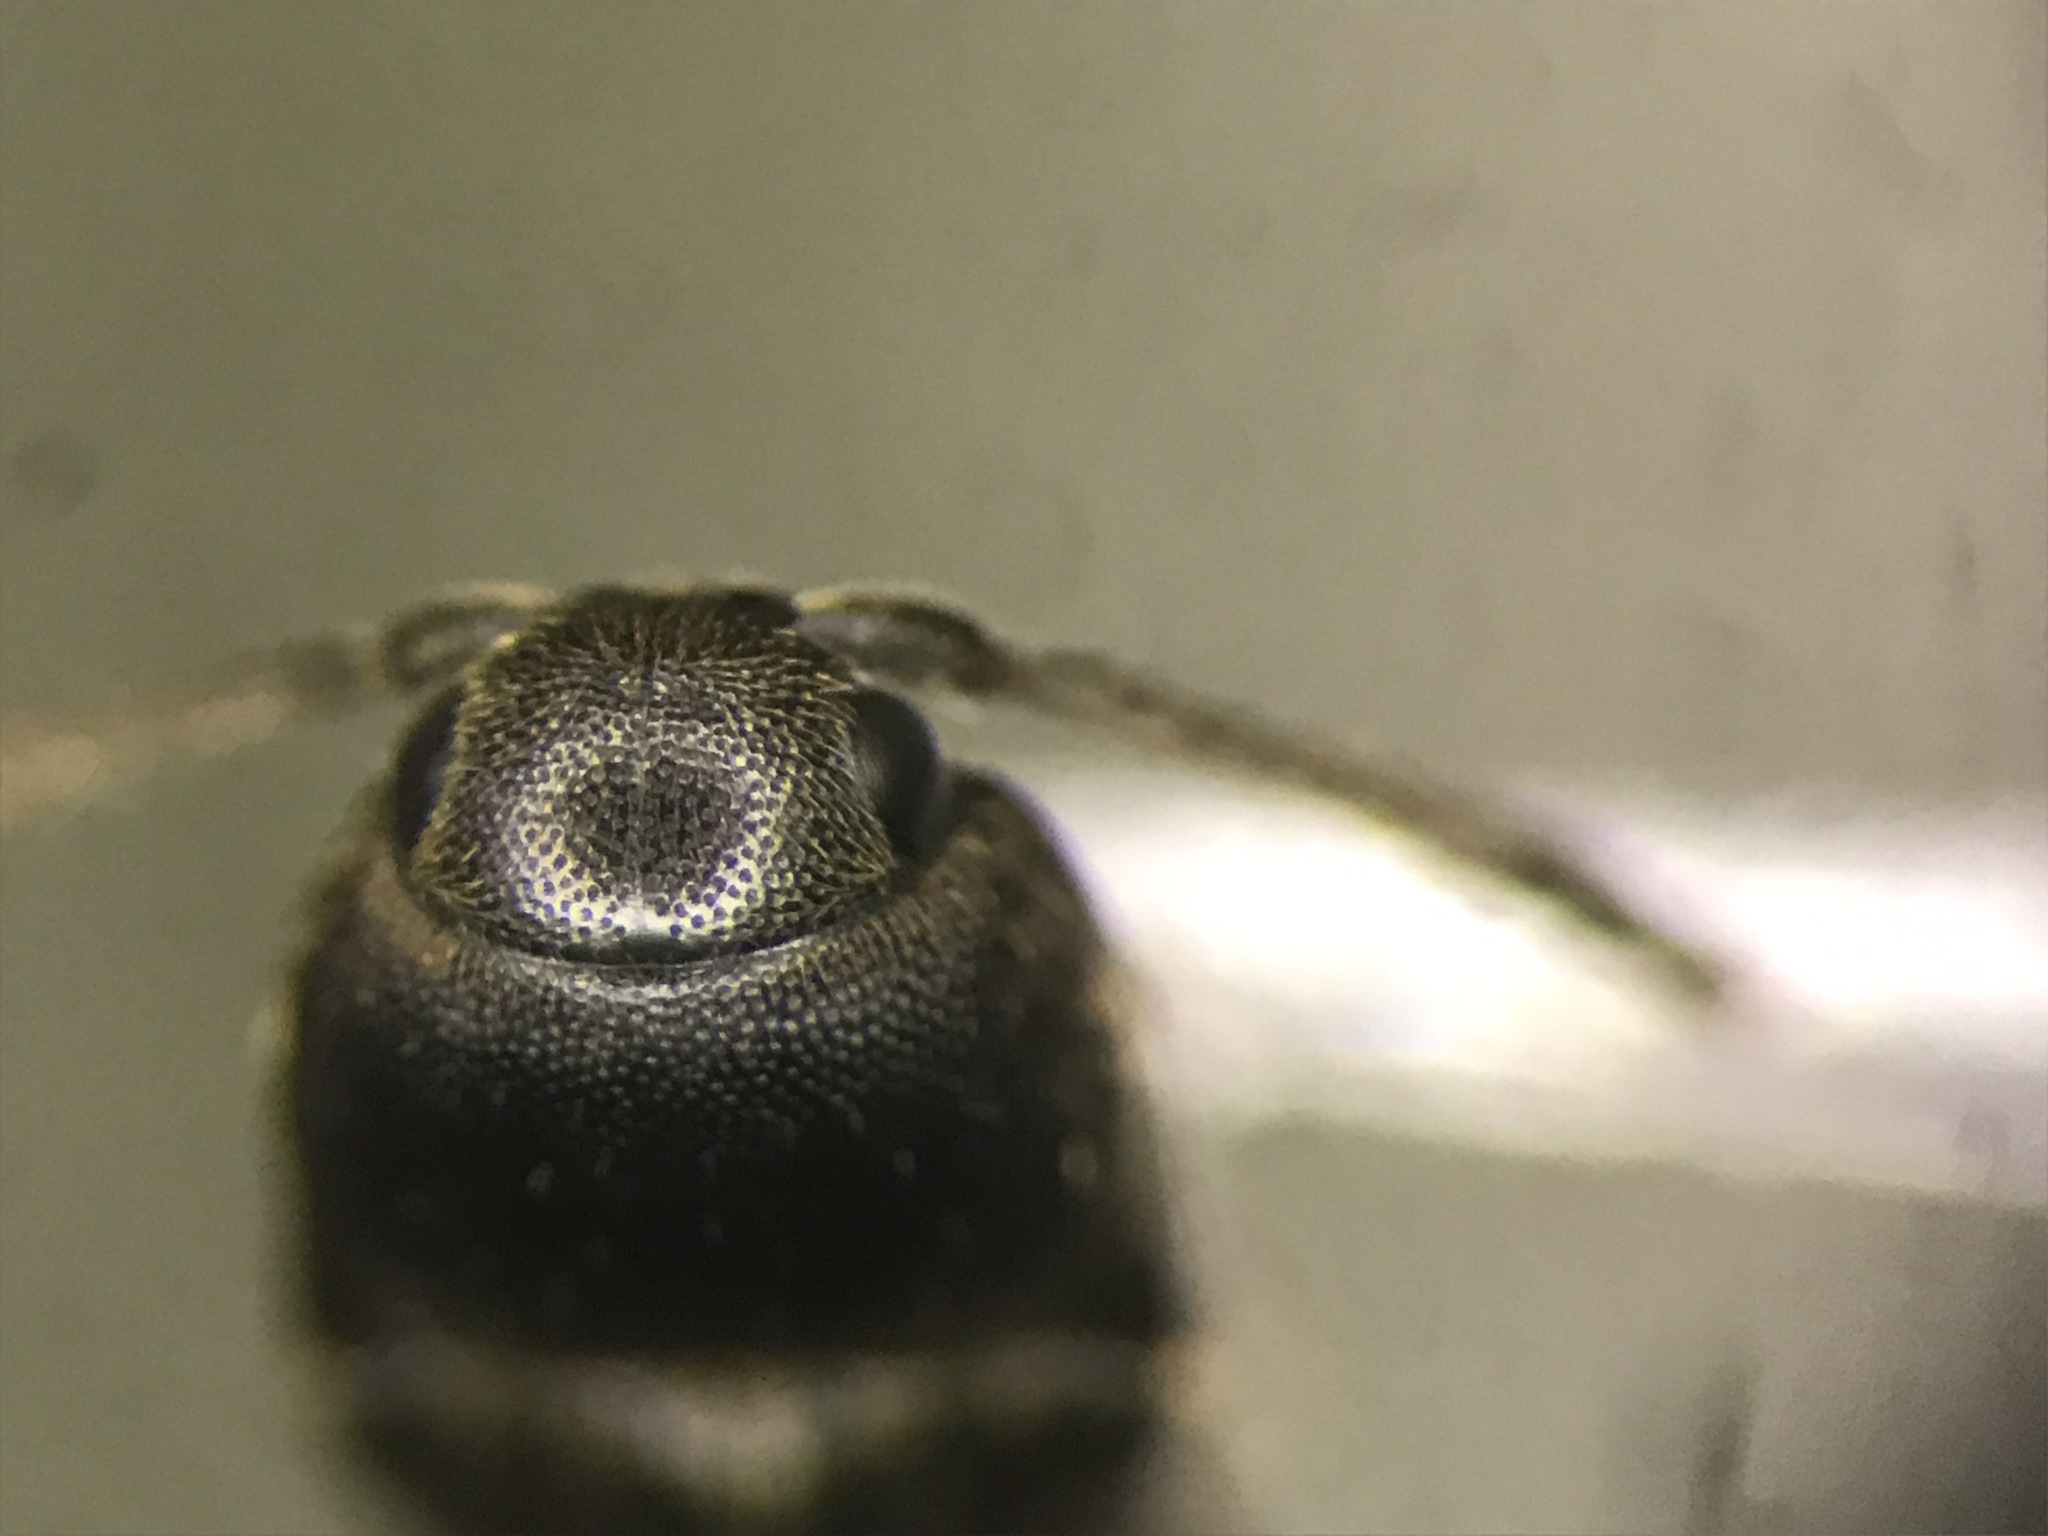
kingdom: Animalia
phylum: Arthropoda
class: Insecta
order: Coleoptera
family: Eucnemidae
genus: Hylis
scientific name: Hylis terminalis
